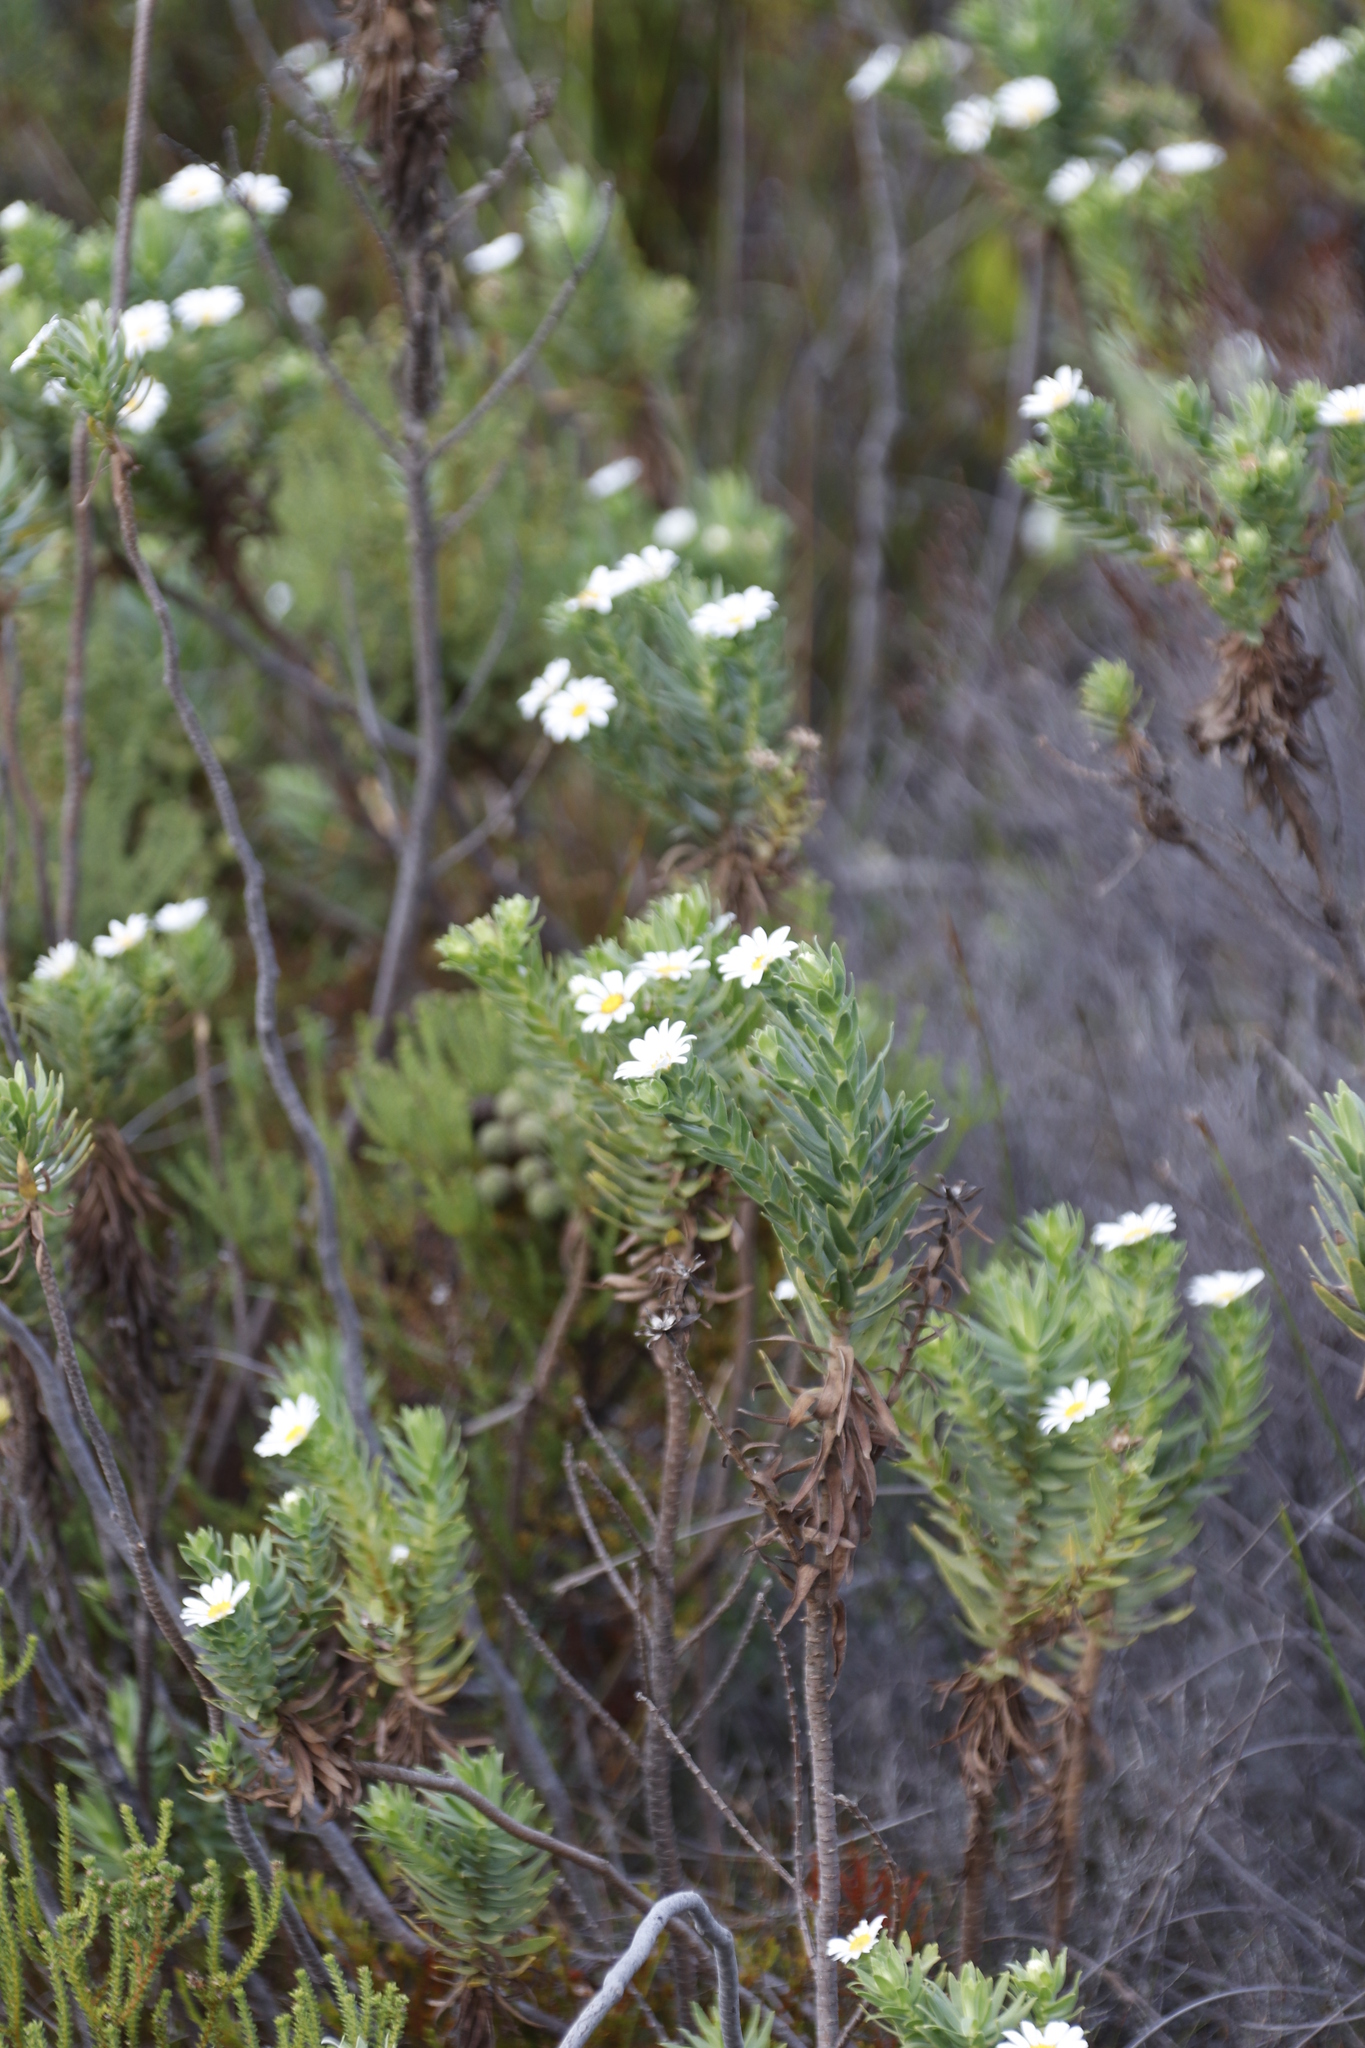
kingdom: Plantae
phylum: Tracheophyta
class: Magnoliopsida
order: Asterales
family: Asteraceae
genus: Osmitopsis
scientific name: Osmitopsis asteriscoides
